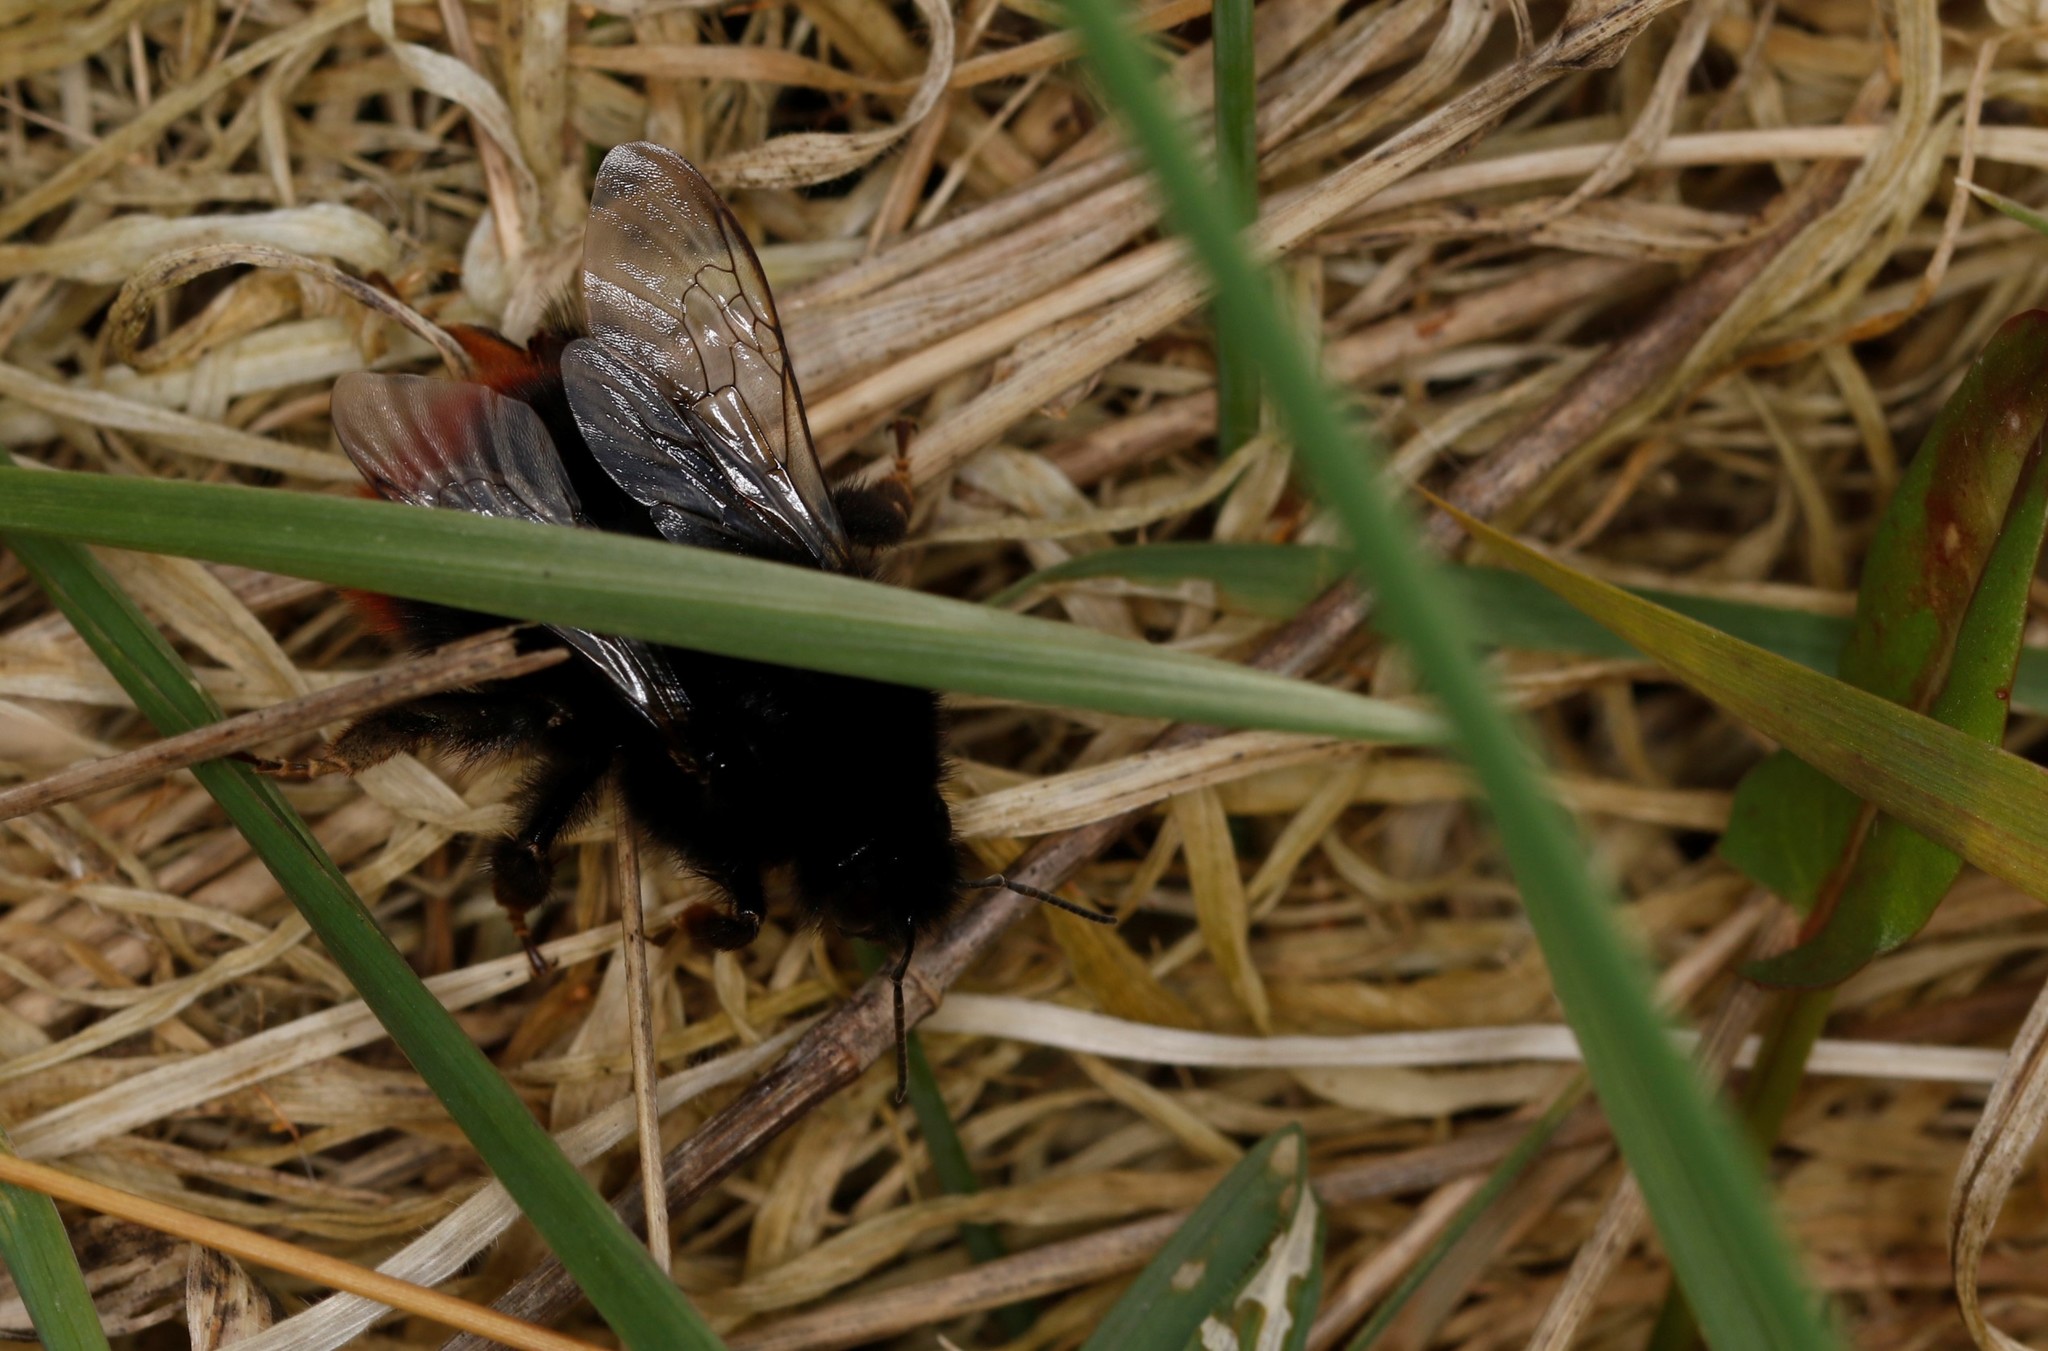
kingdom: Animalia
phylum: Arthropoda
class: Insecta
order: Hymenoptera
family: Apidae
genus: Bombus
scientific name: Bombus lapidarius
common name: Large red-tailed humble-bee
